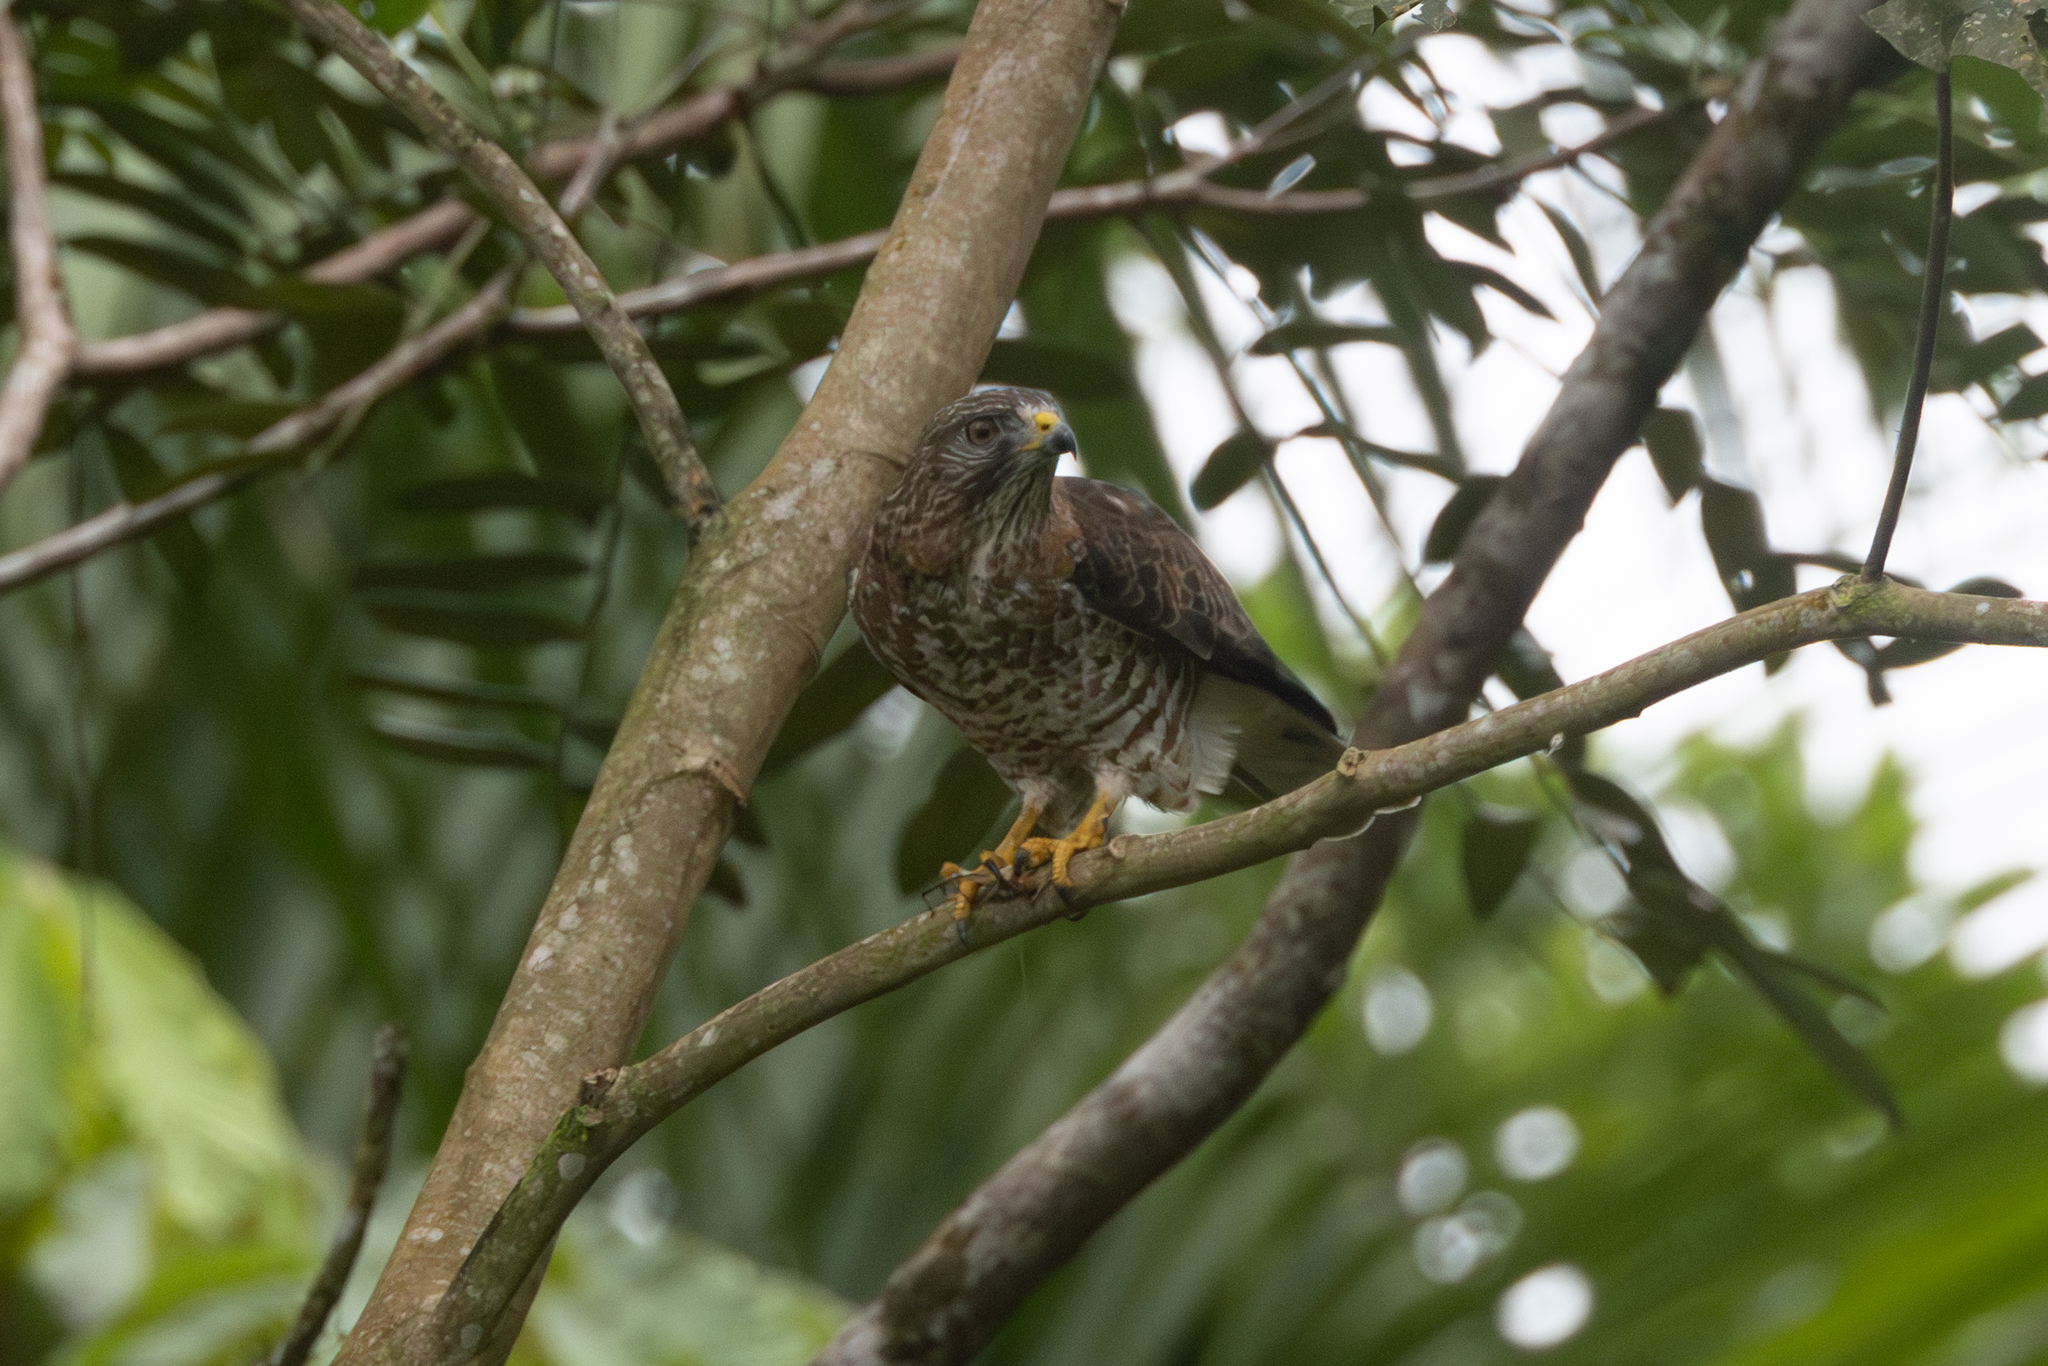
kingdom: Animalia
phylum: Chordata
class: Aves
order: Accipitriformes
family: Accipitridae
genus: Buteo
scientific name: Buteo platypterus
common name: Broad-winged hawk
